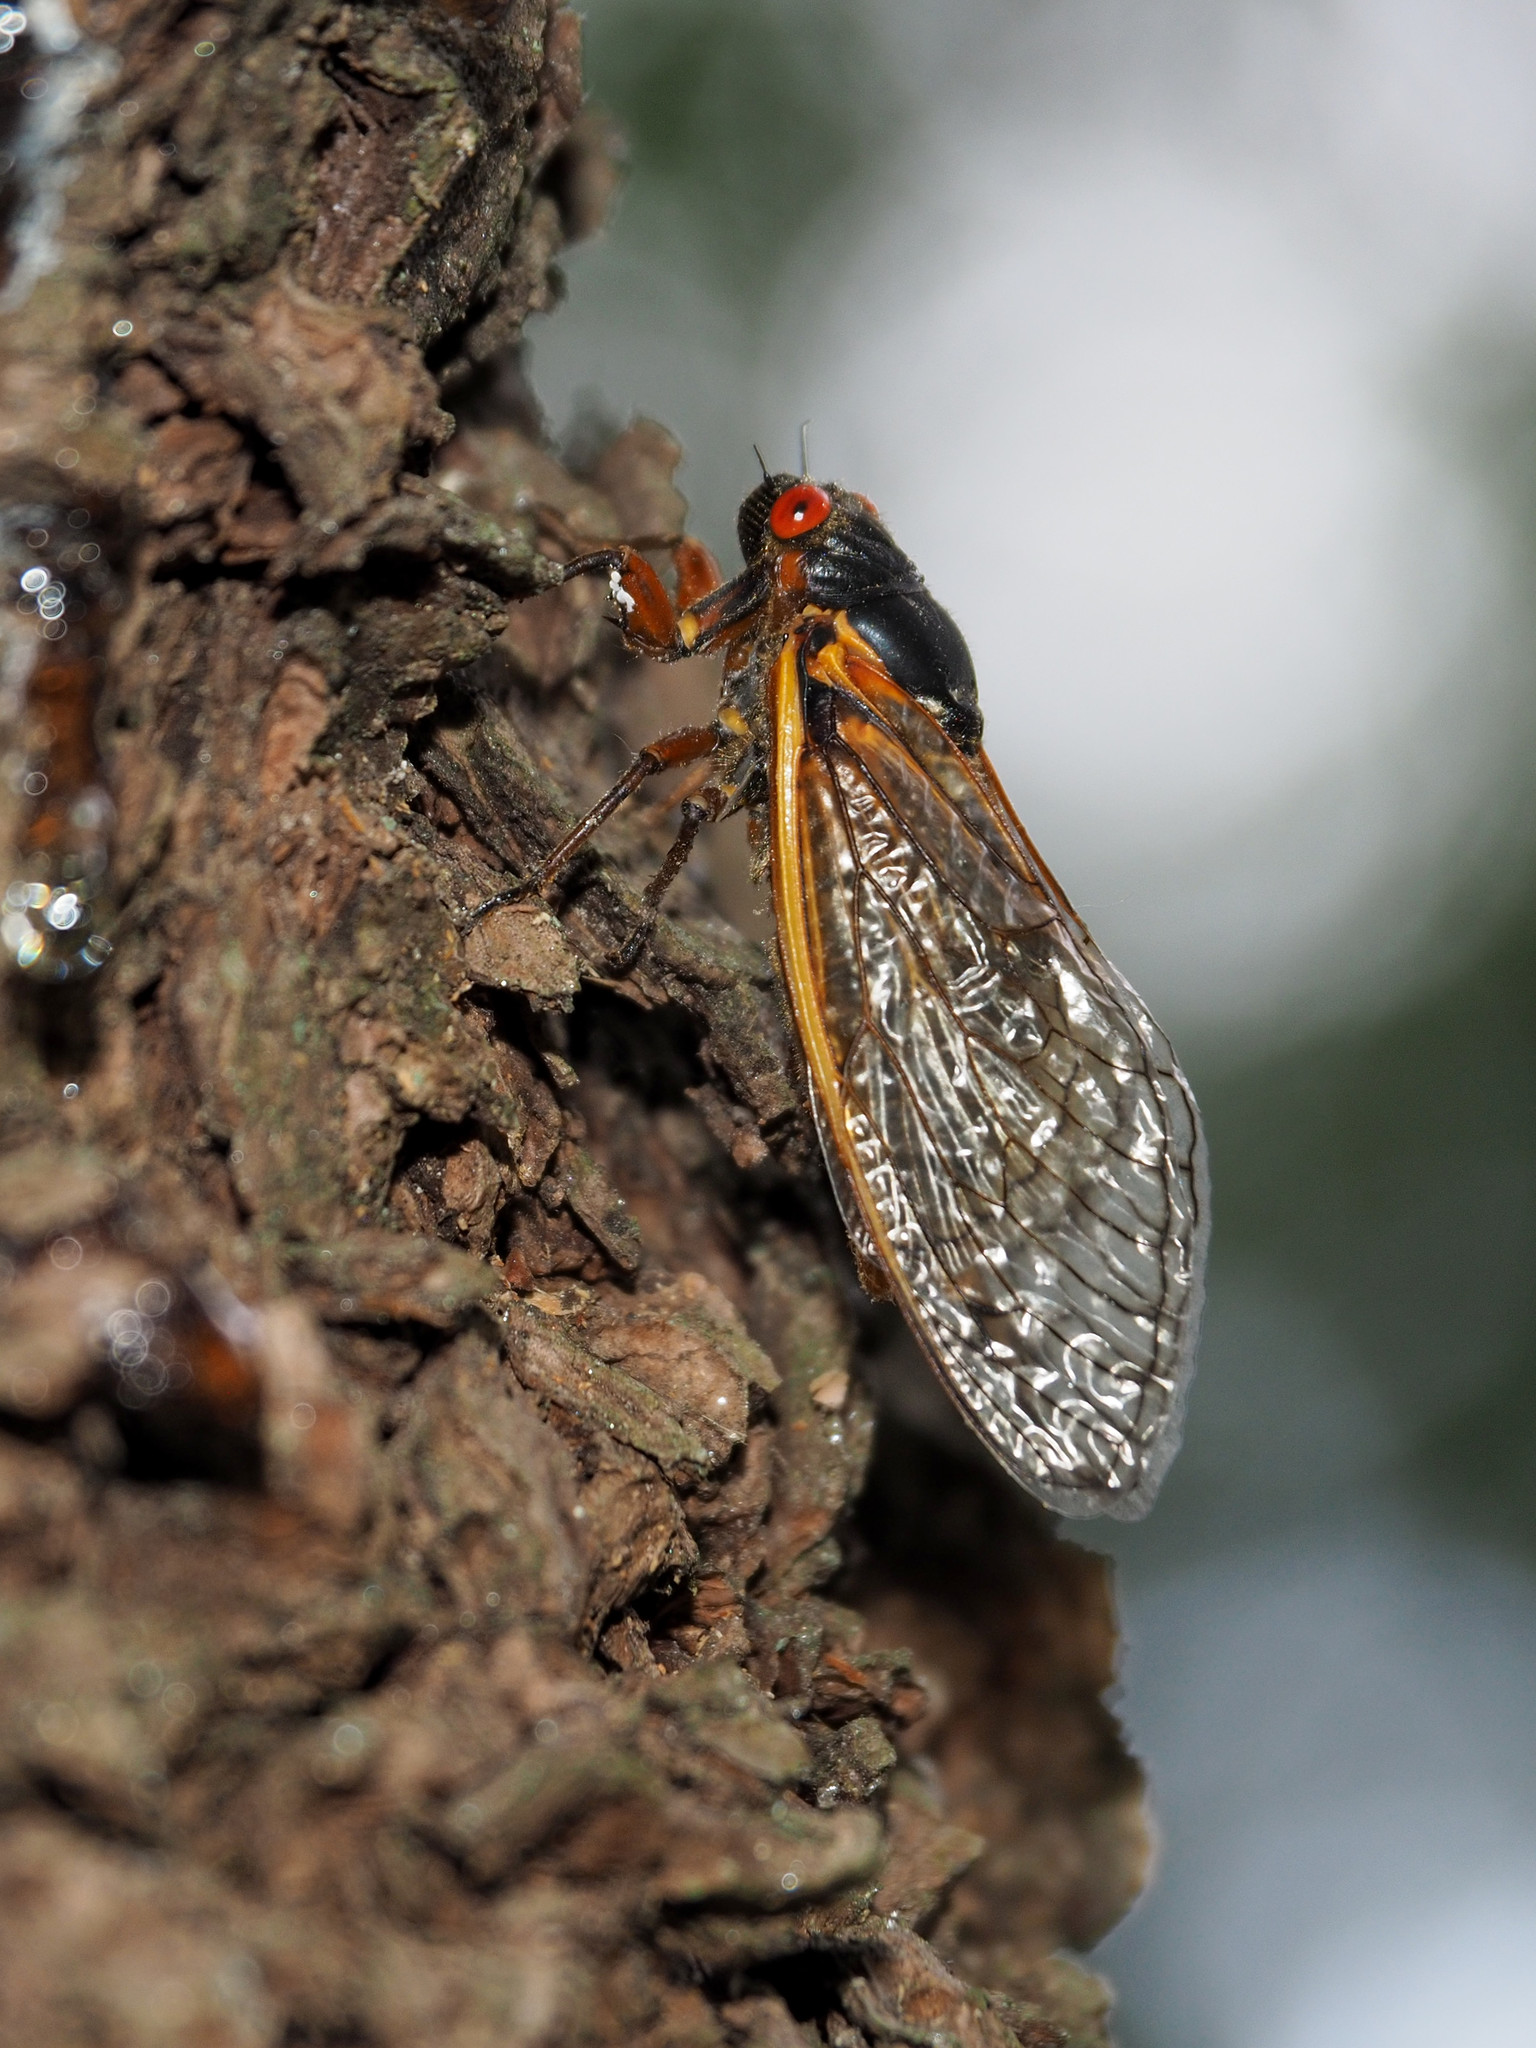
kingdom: Animalia
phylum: Arthropoda
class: Insecta
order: Hemiptera
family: Cicadidae
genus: Magicicada
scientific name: Magicicada septendecim
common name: Periodical cicada
